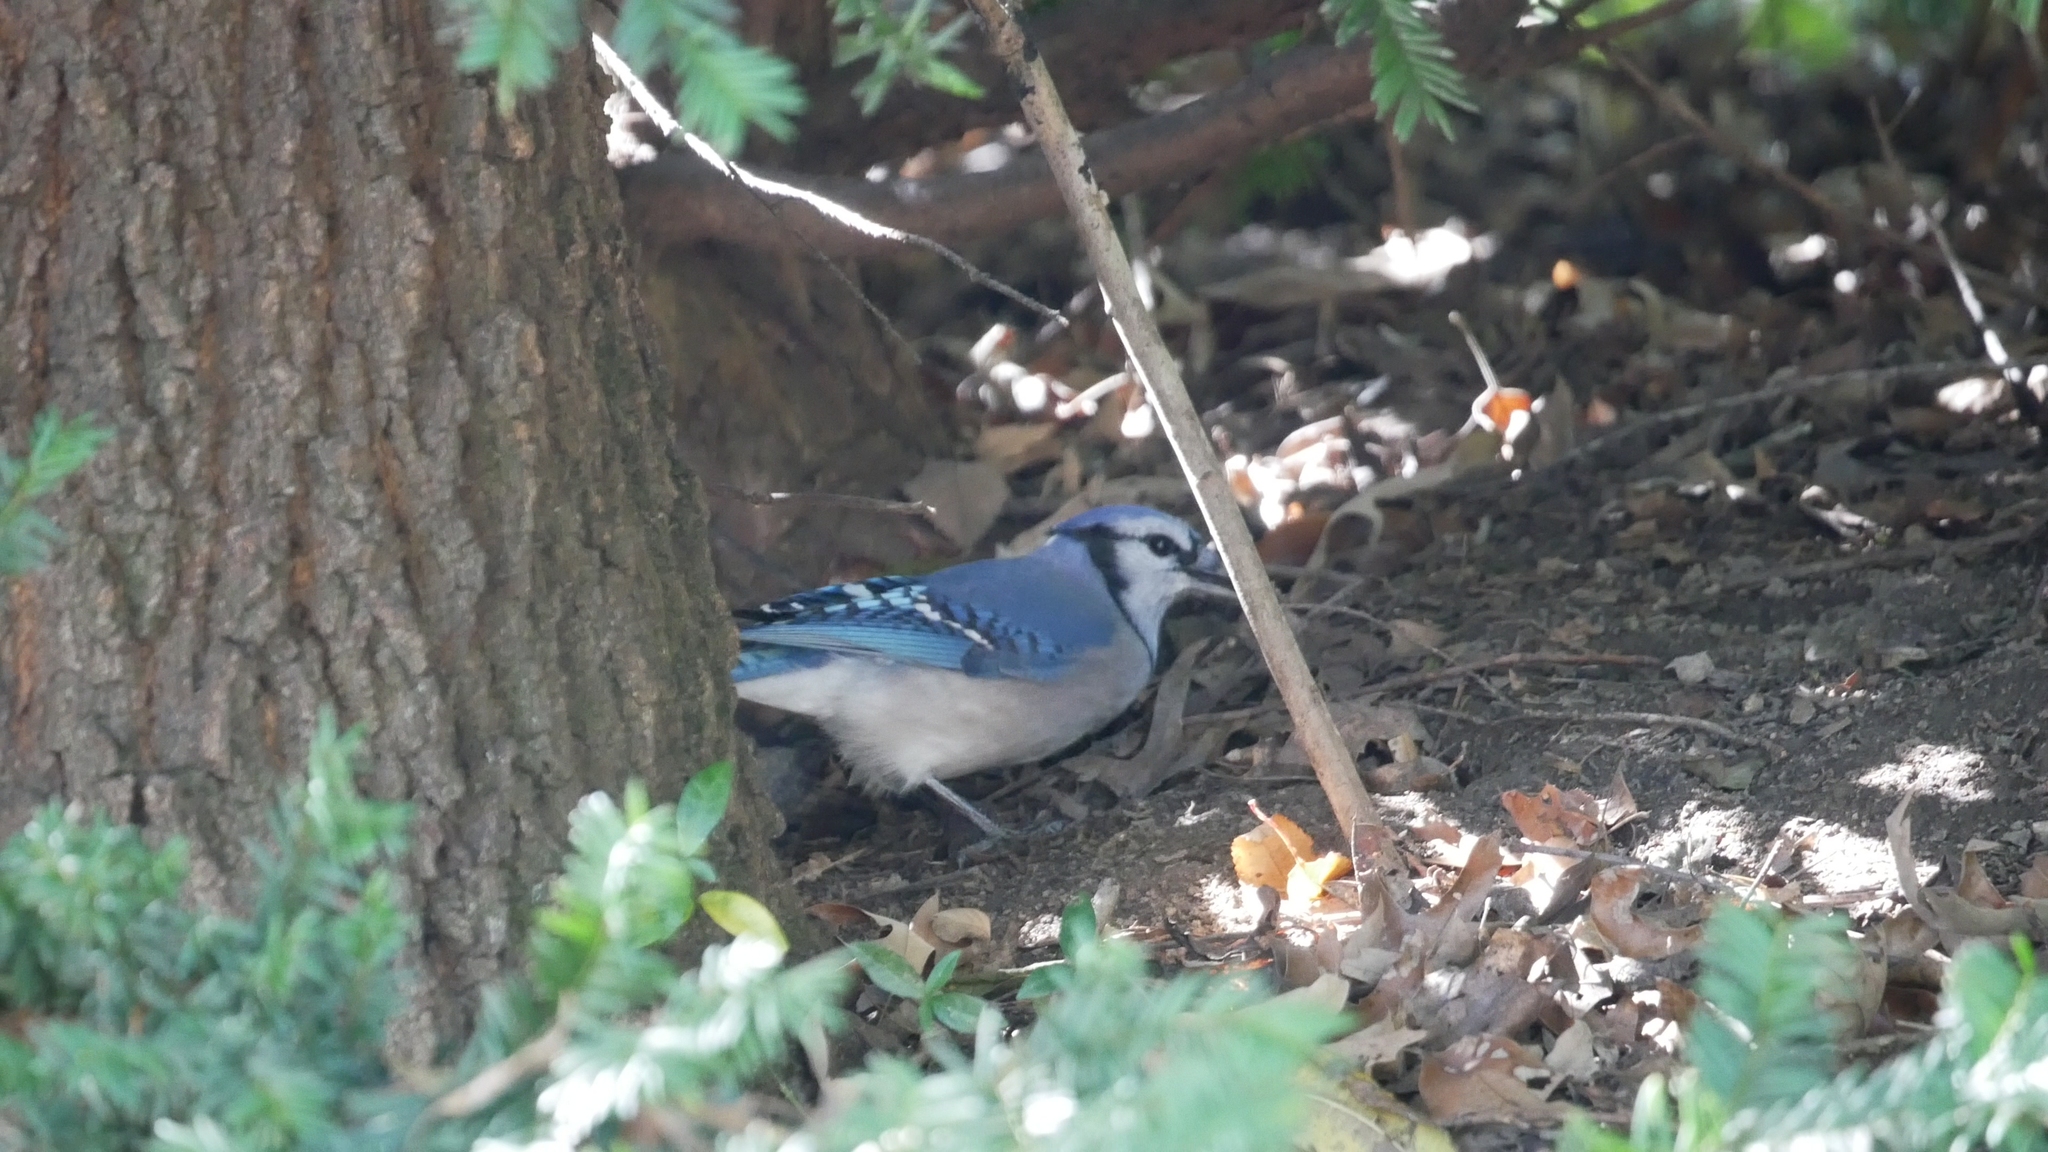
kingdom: Animalia
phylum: Chordata
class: Aves
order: Passeriformes
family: Corvidae
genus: Cyanocitta
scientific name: Cyanocitta cristata
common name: Blue jay
